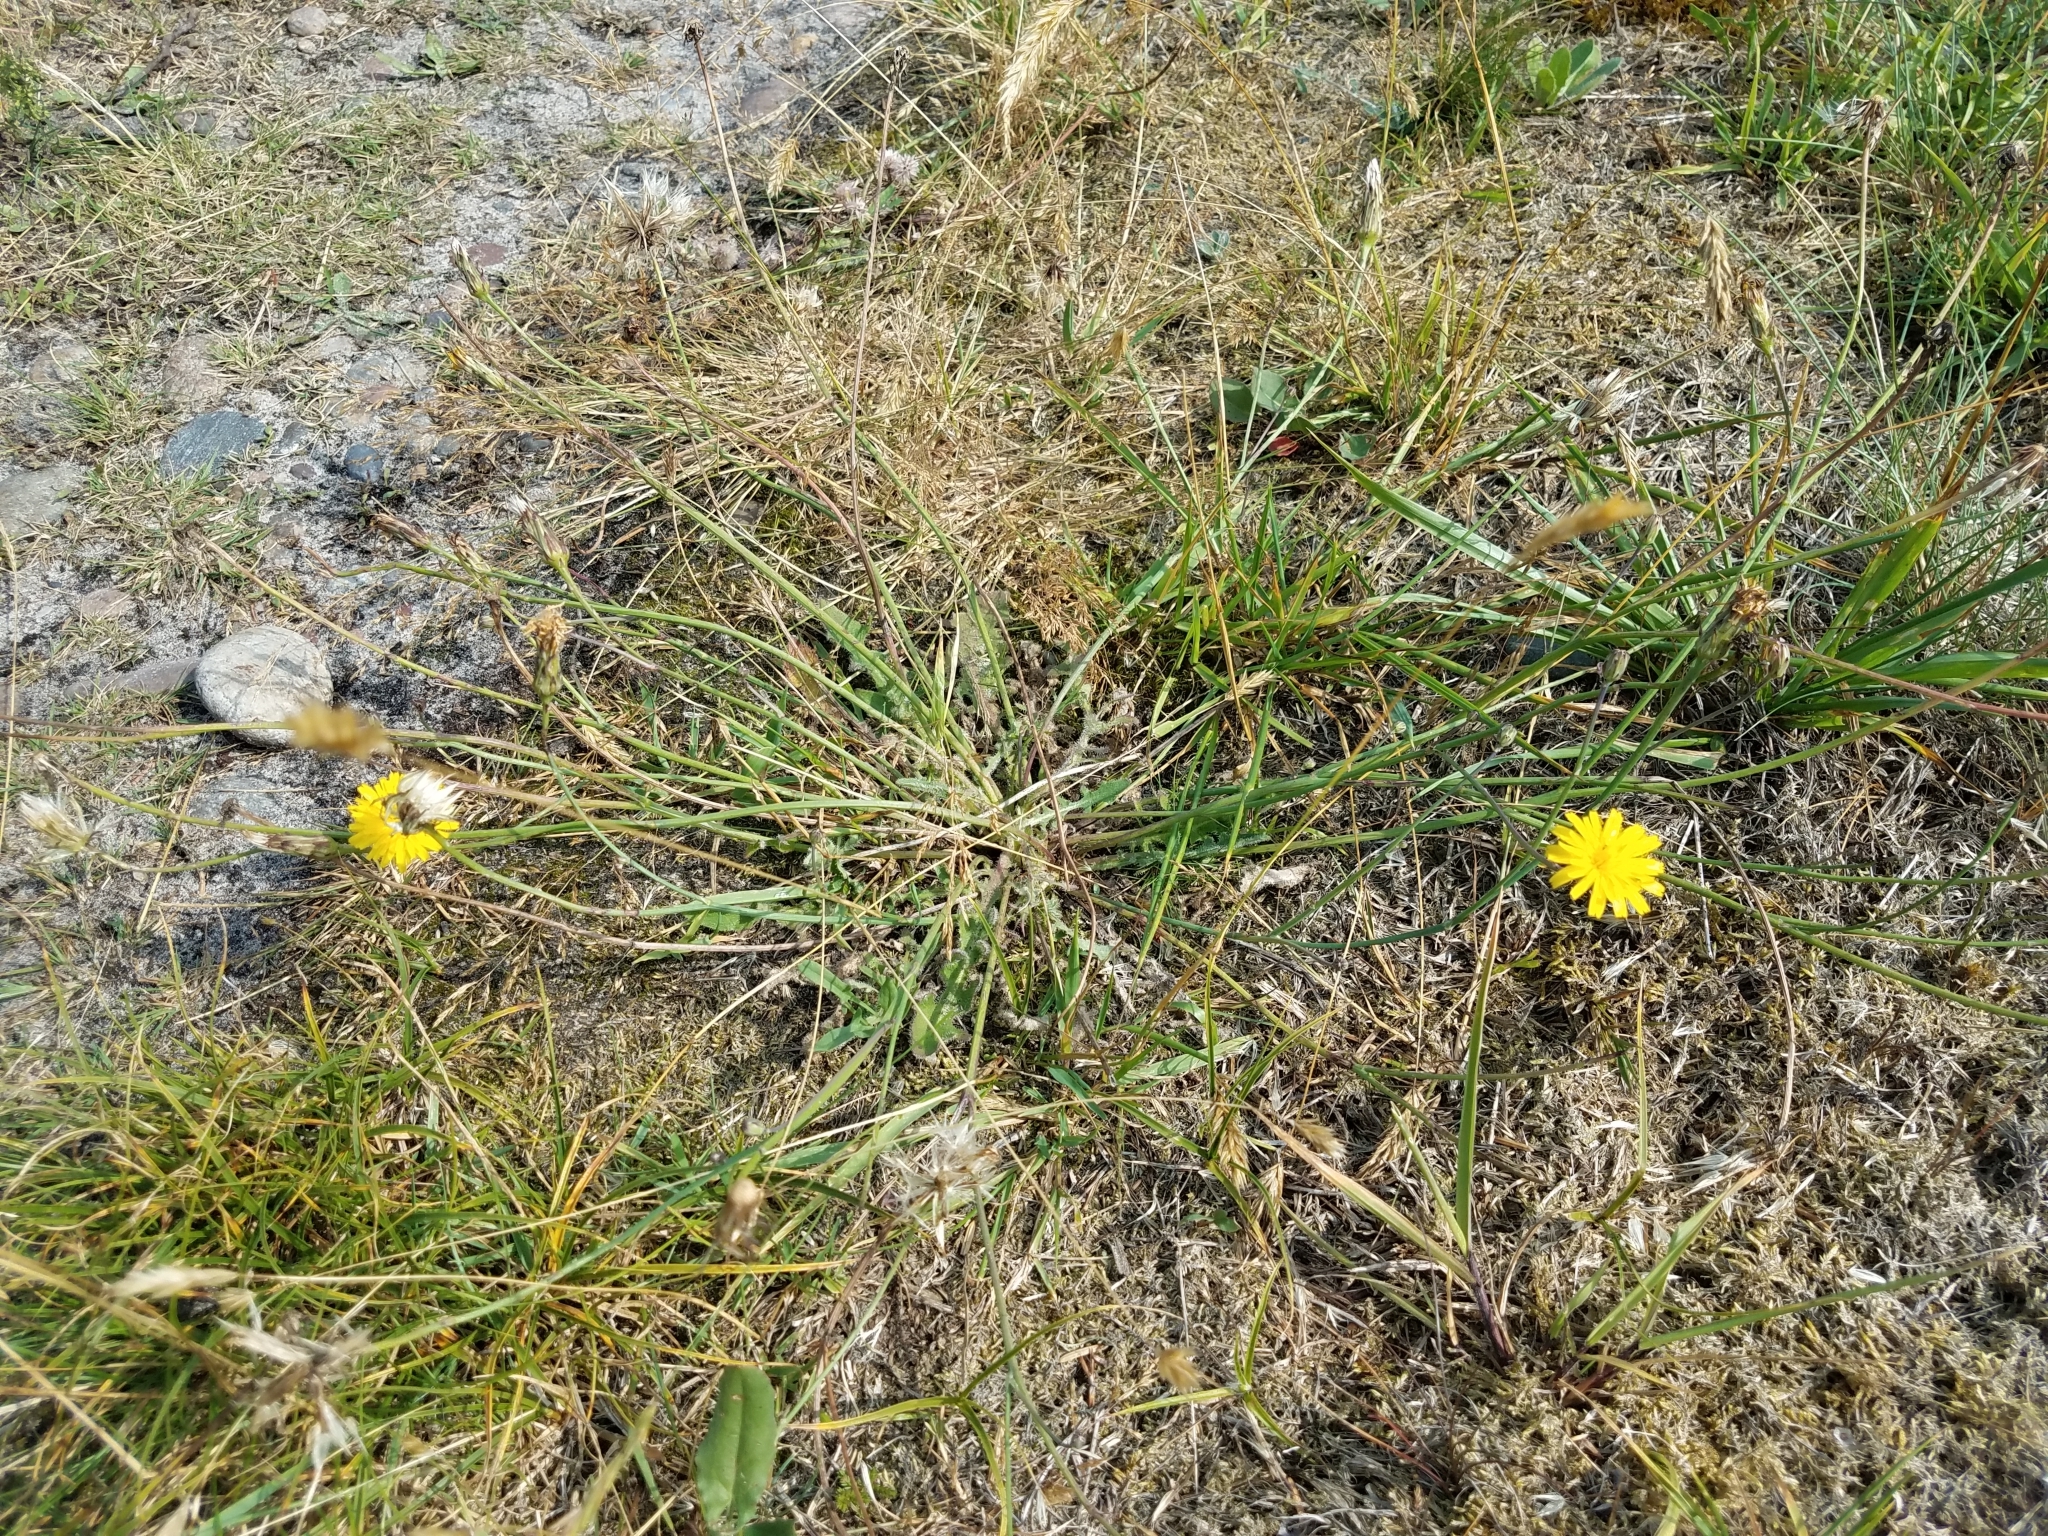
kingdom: Plantae
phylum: Tracheophyta
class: Magnoliopsida
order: Asterales
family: Asteraceae
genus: Hypochaeris
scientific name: Hypochaeris radicata
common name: Flatweed
